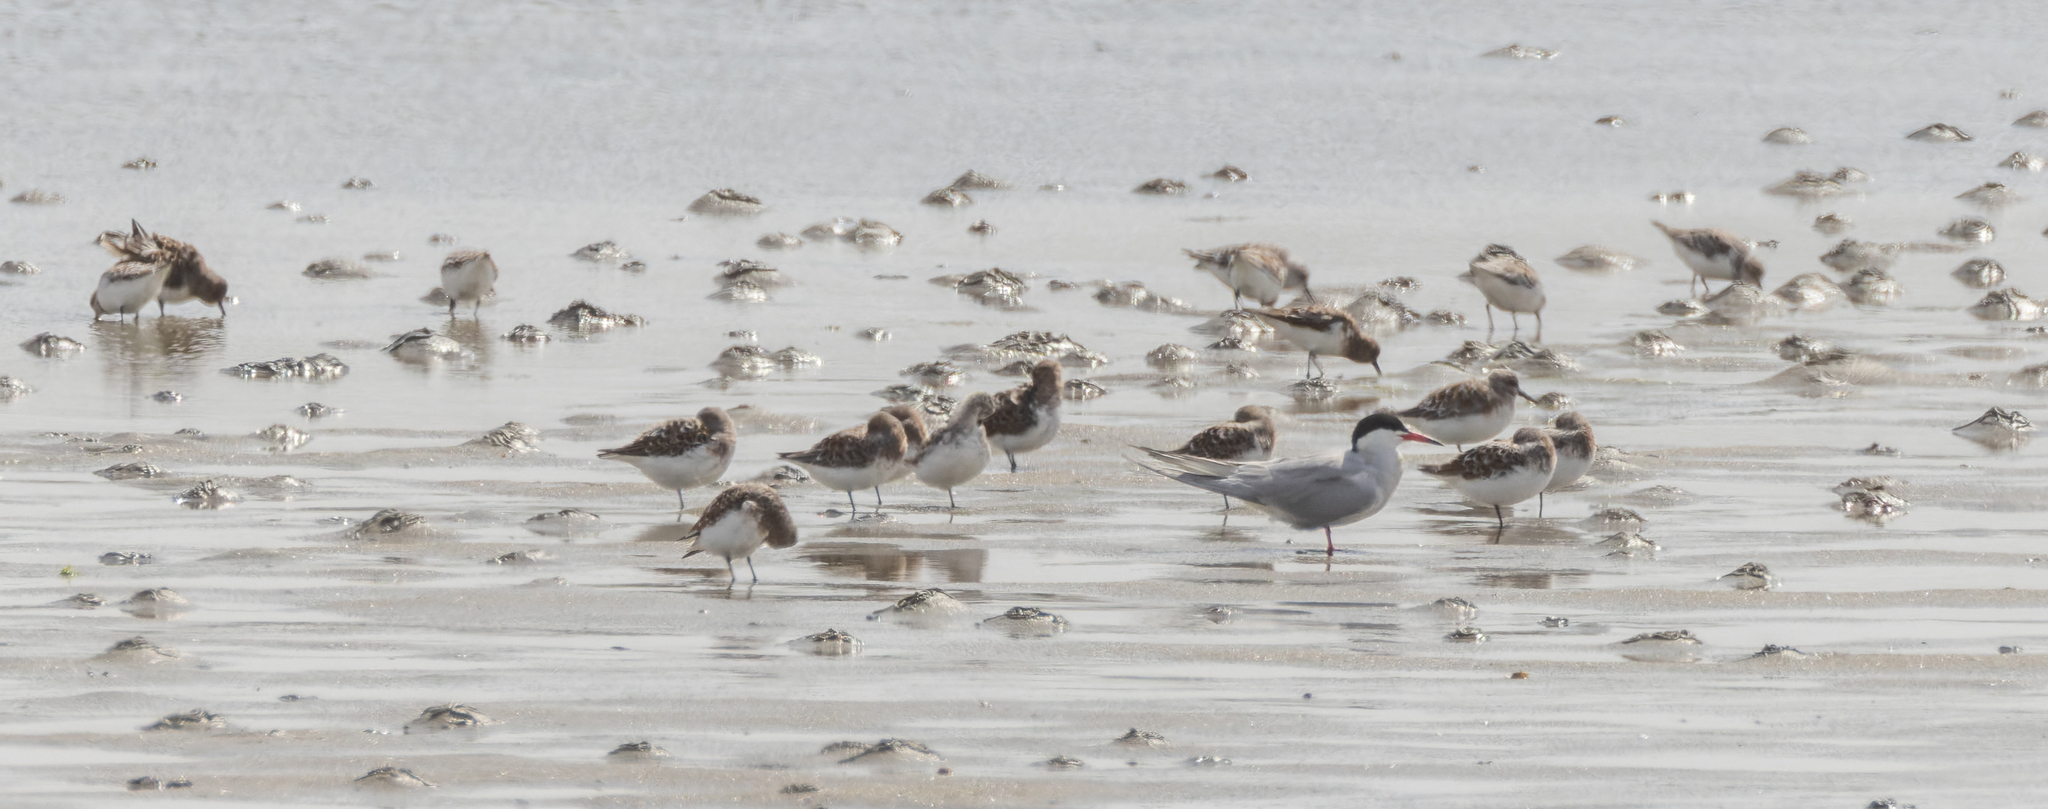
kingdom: Animalia
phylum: Chordata
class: Aves
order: Charadriiformes
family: Laridae
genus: Sterna
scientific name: Sterna hirundo
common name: Common tern
